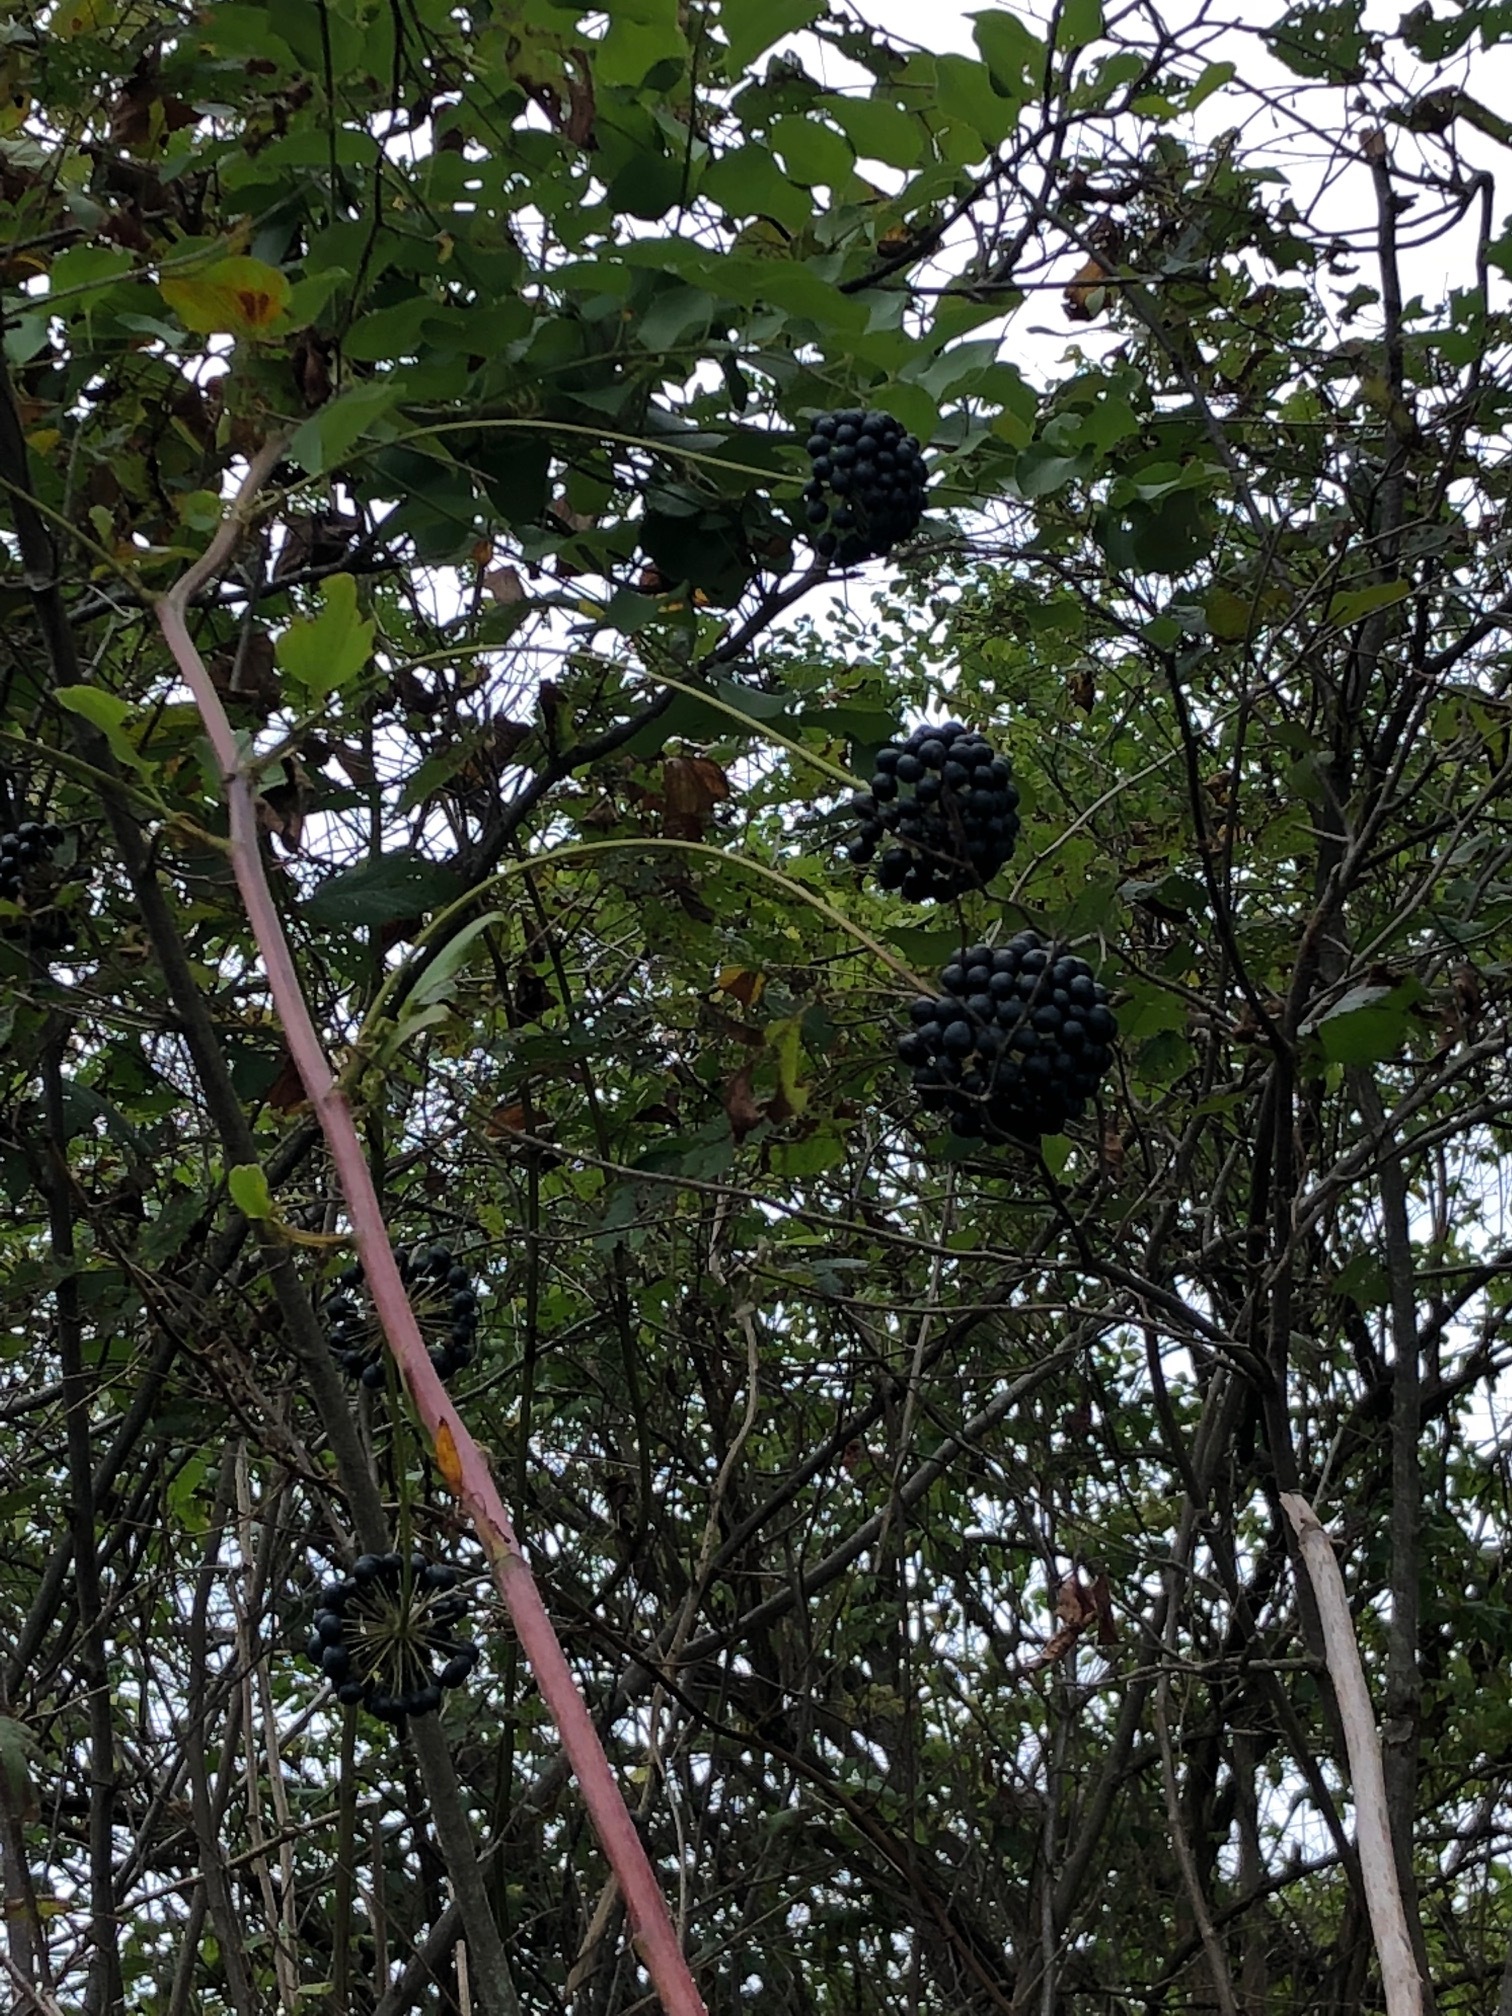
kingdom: Plantae
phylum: Tracheophyta
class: Liliopsida
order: Liliales
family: Smilacaceae
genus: Smilax
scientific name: Smilax herbacea
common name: Jacob's-ladder
